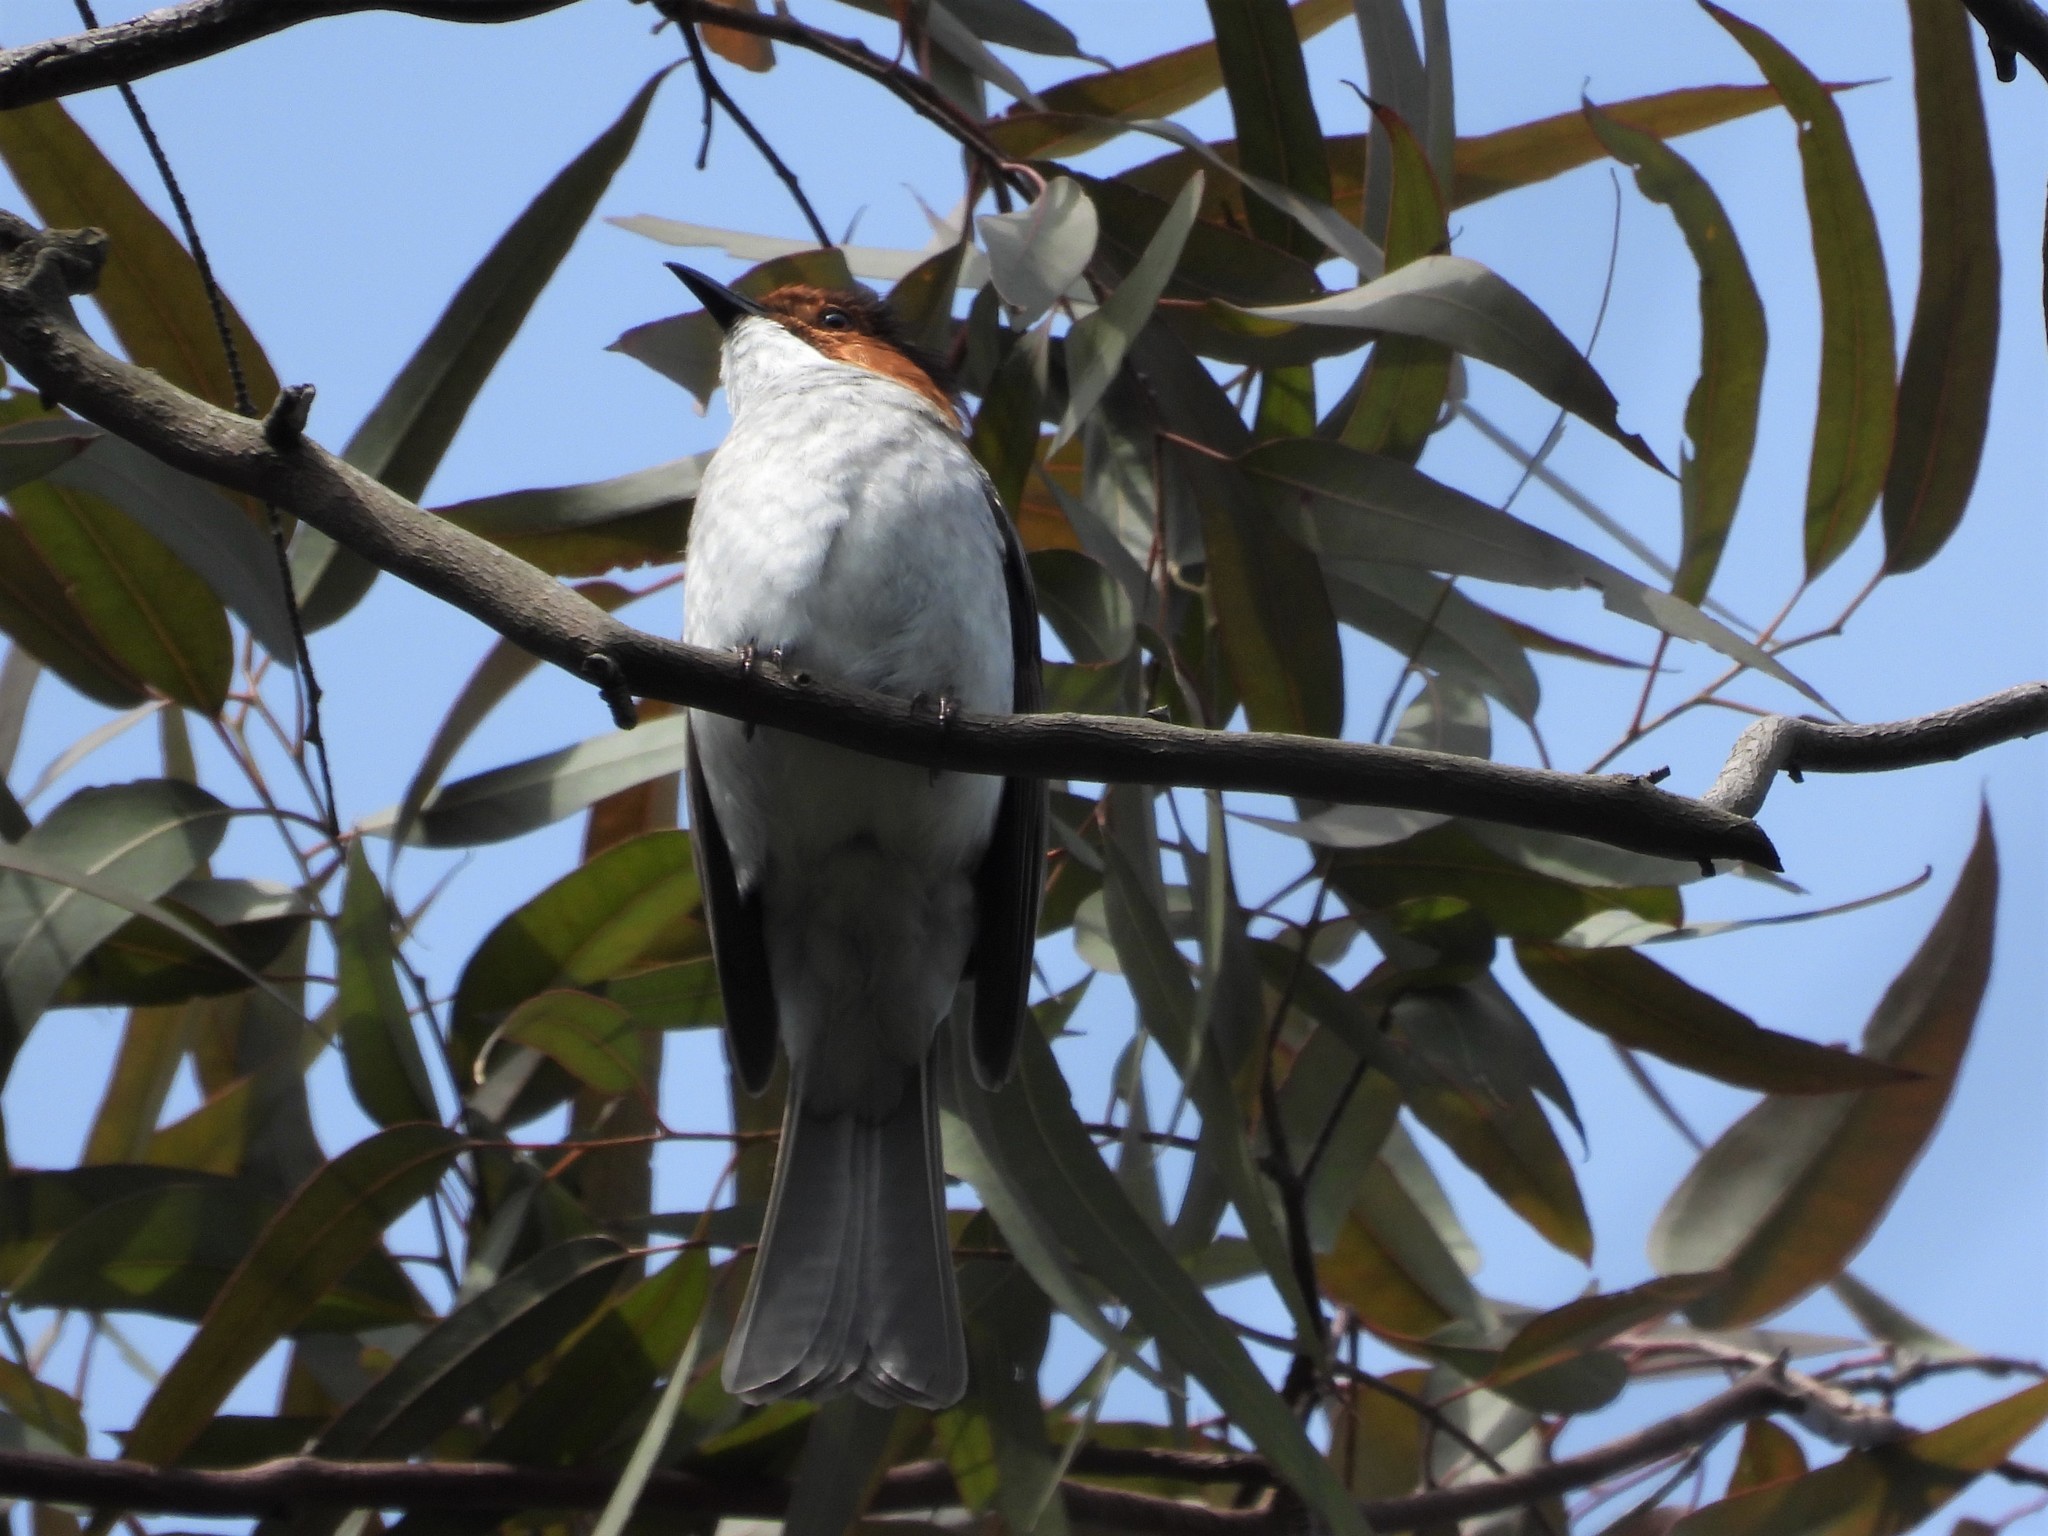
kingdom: Animalia
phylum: Chordata
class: Aves
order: Passeriformes
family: Pycnonotidae
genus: Hemixos
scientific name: Hemixos castanonotus
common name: Chestnut bulbul
